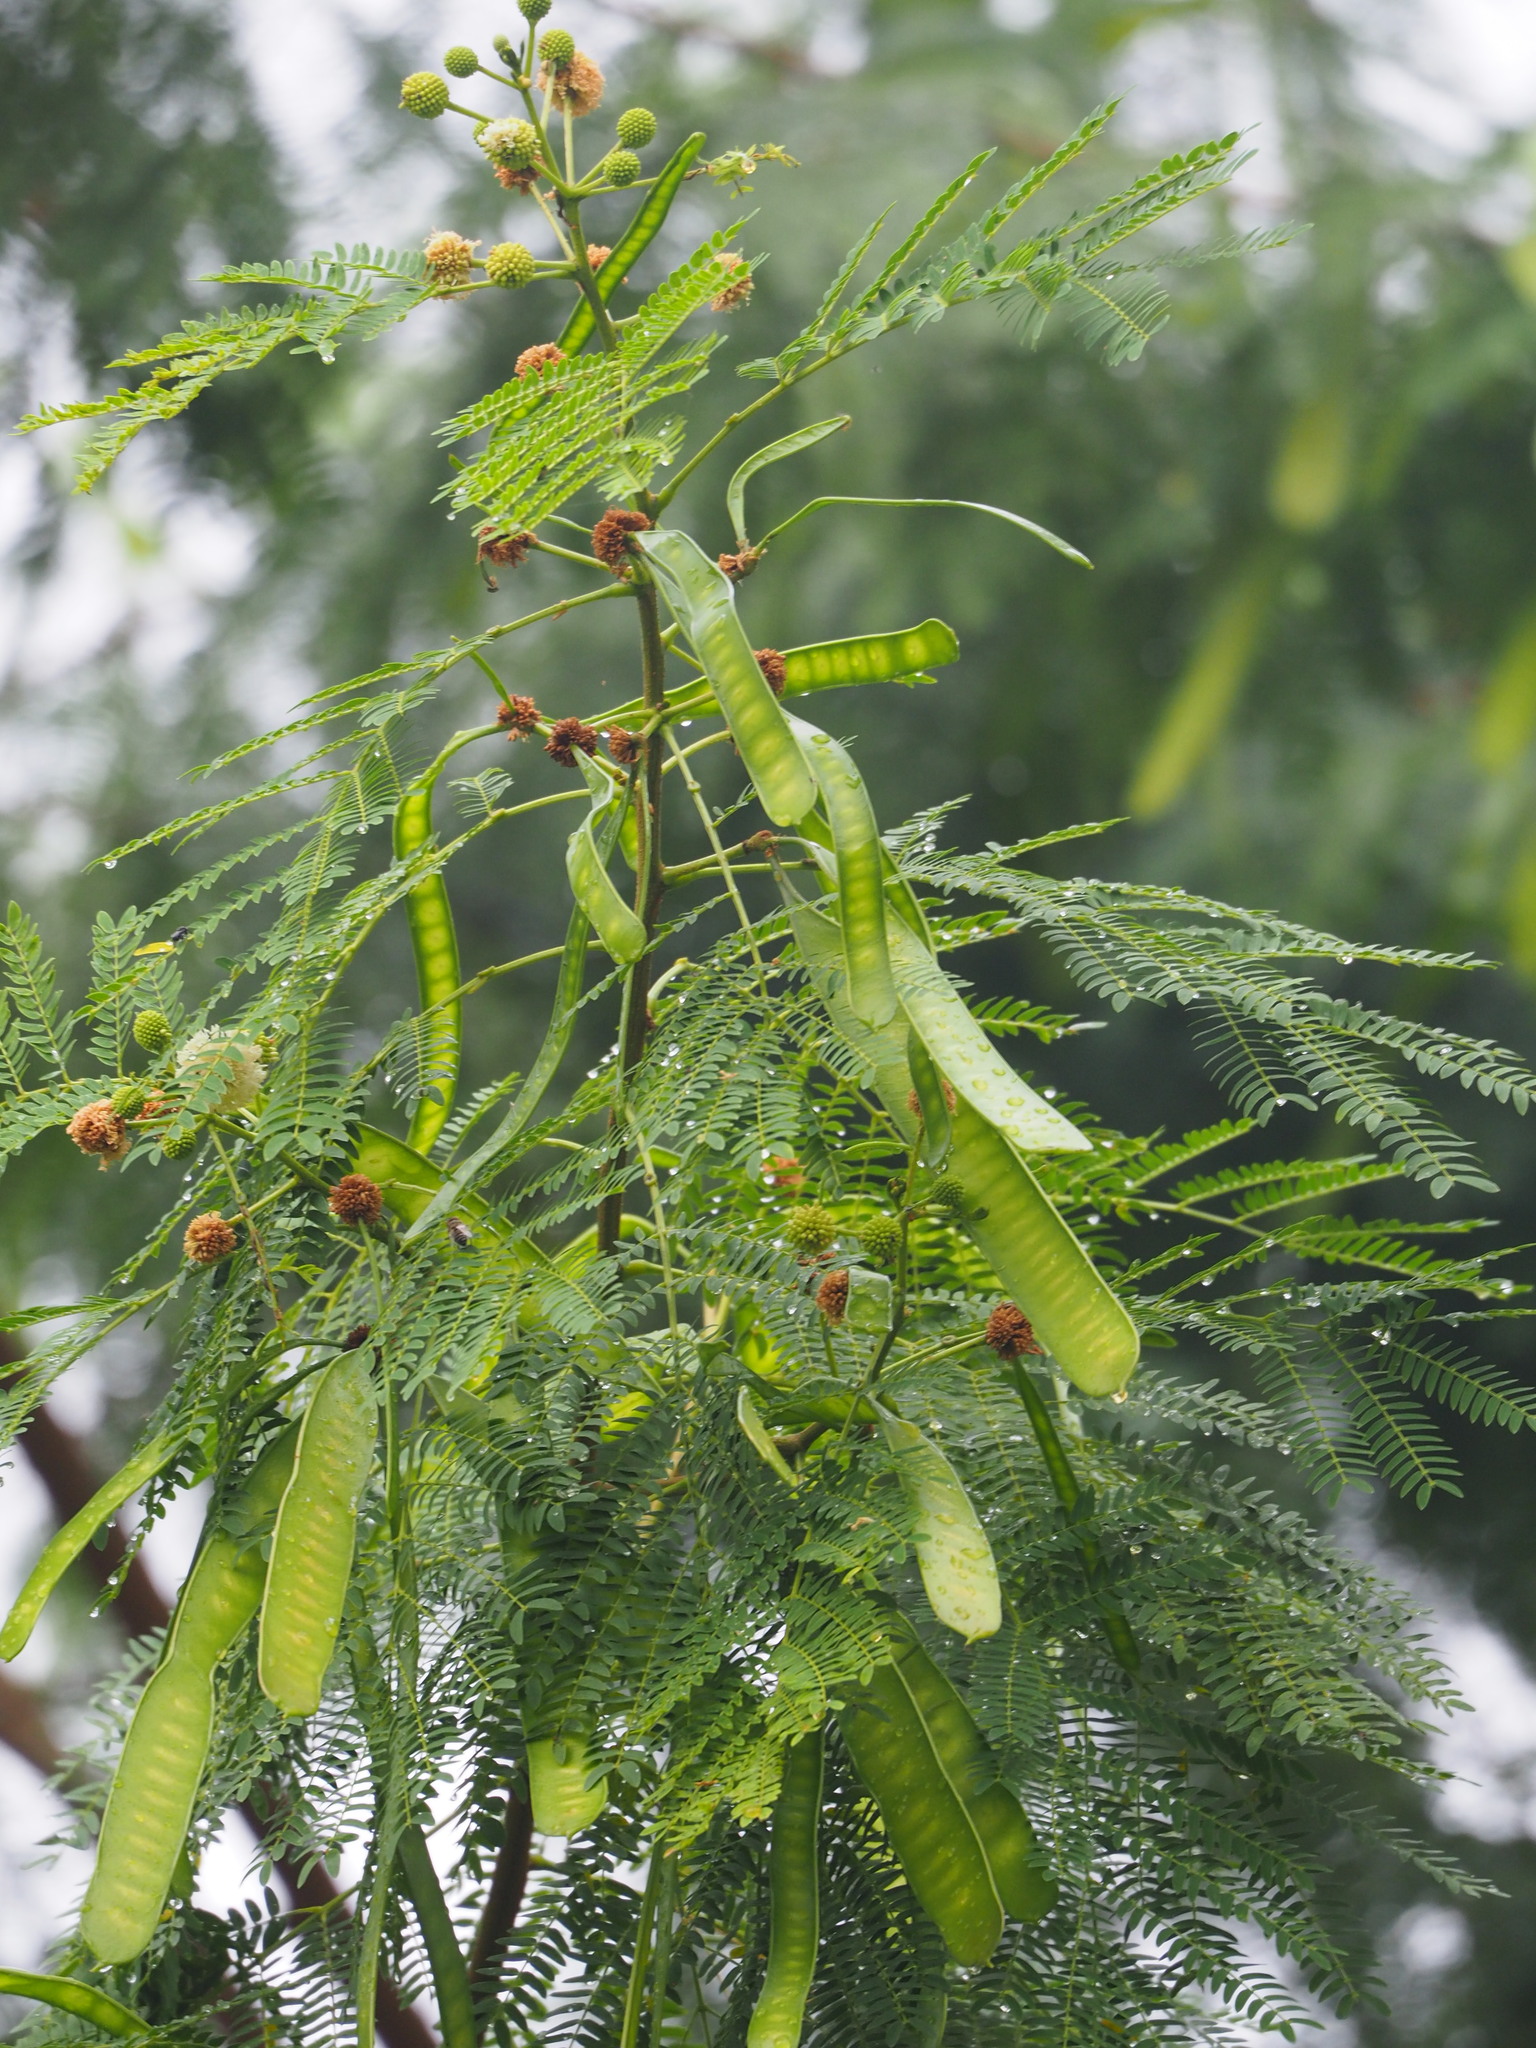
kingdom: Plantae
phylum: Tracheophyta
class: Magnoliopsida
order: Fabales
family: Fabaceae
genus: Leucaena
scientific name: Leucaena leucocephala
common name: White leadtree
